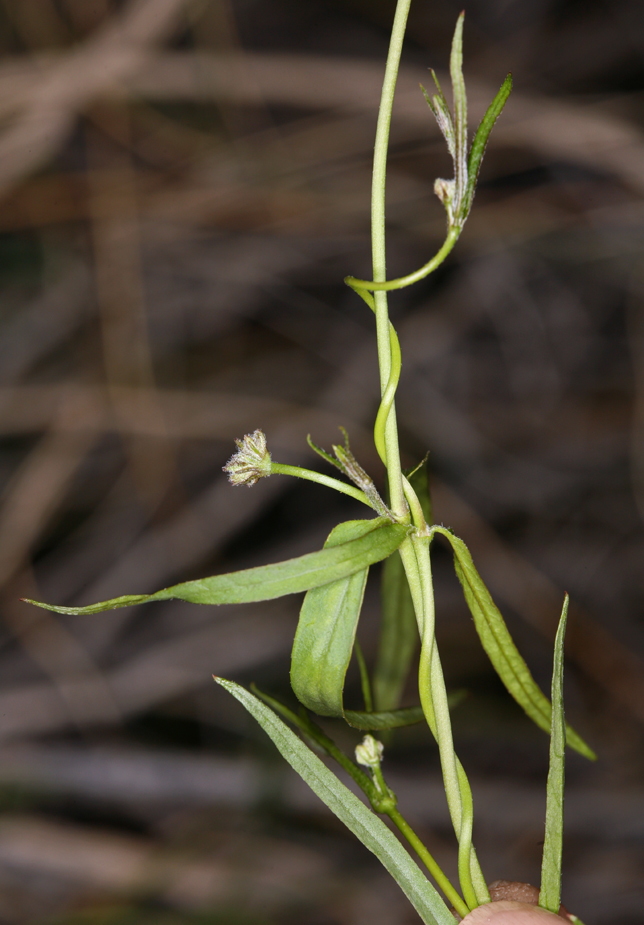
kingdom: Plantae
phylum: Tracheophyta
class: Magnoliopsida
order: Gentianales
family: Apocynaceae
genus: Funastrum
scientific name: Funastrum heterophyllum
